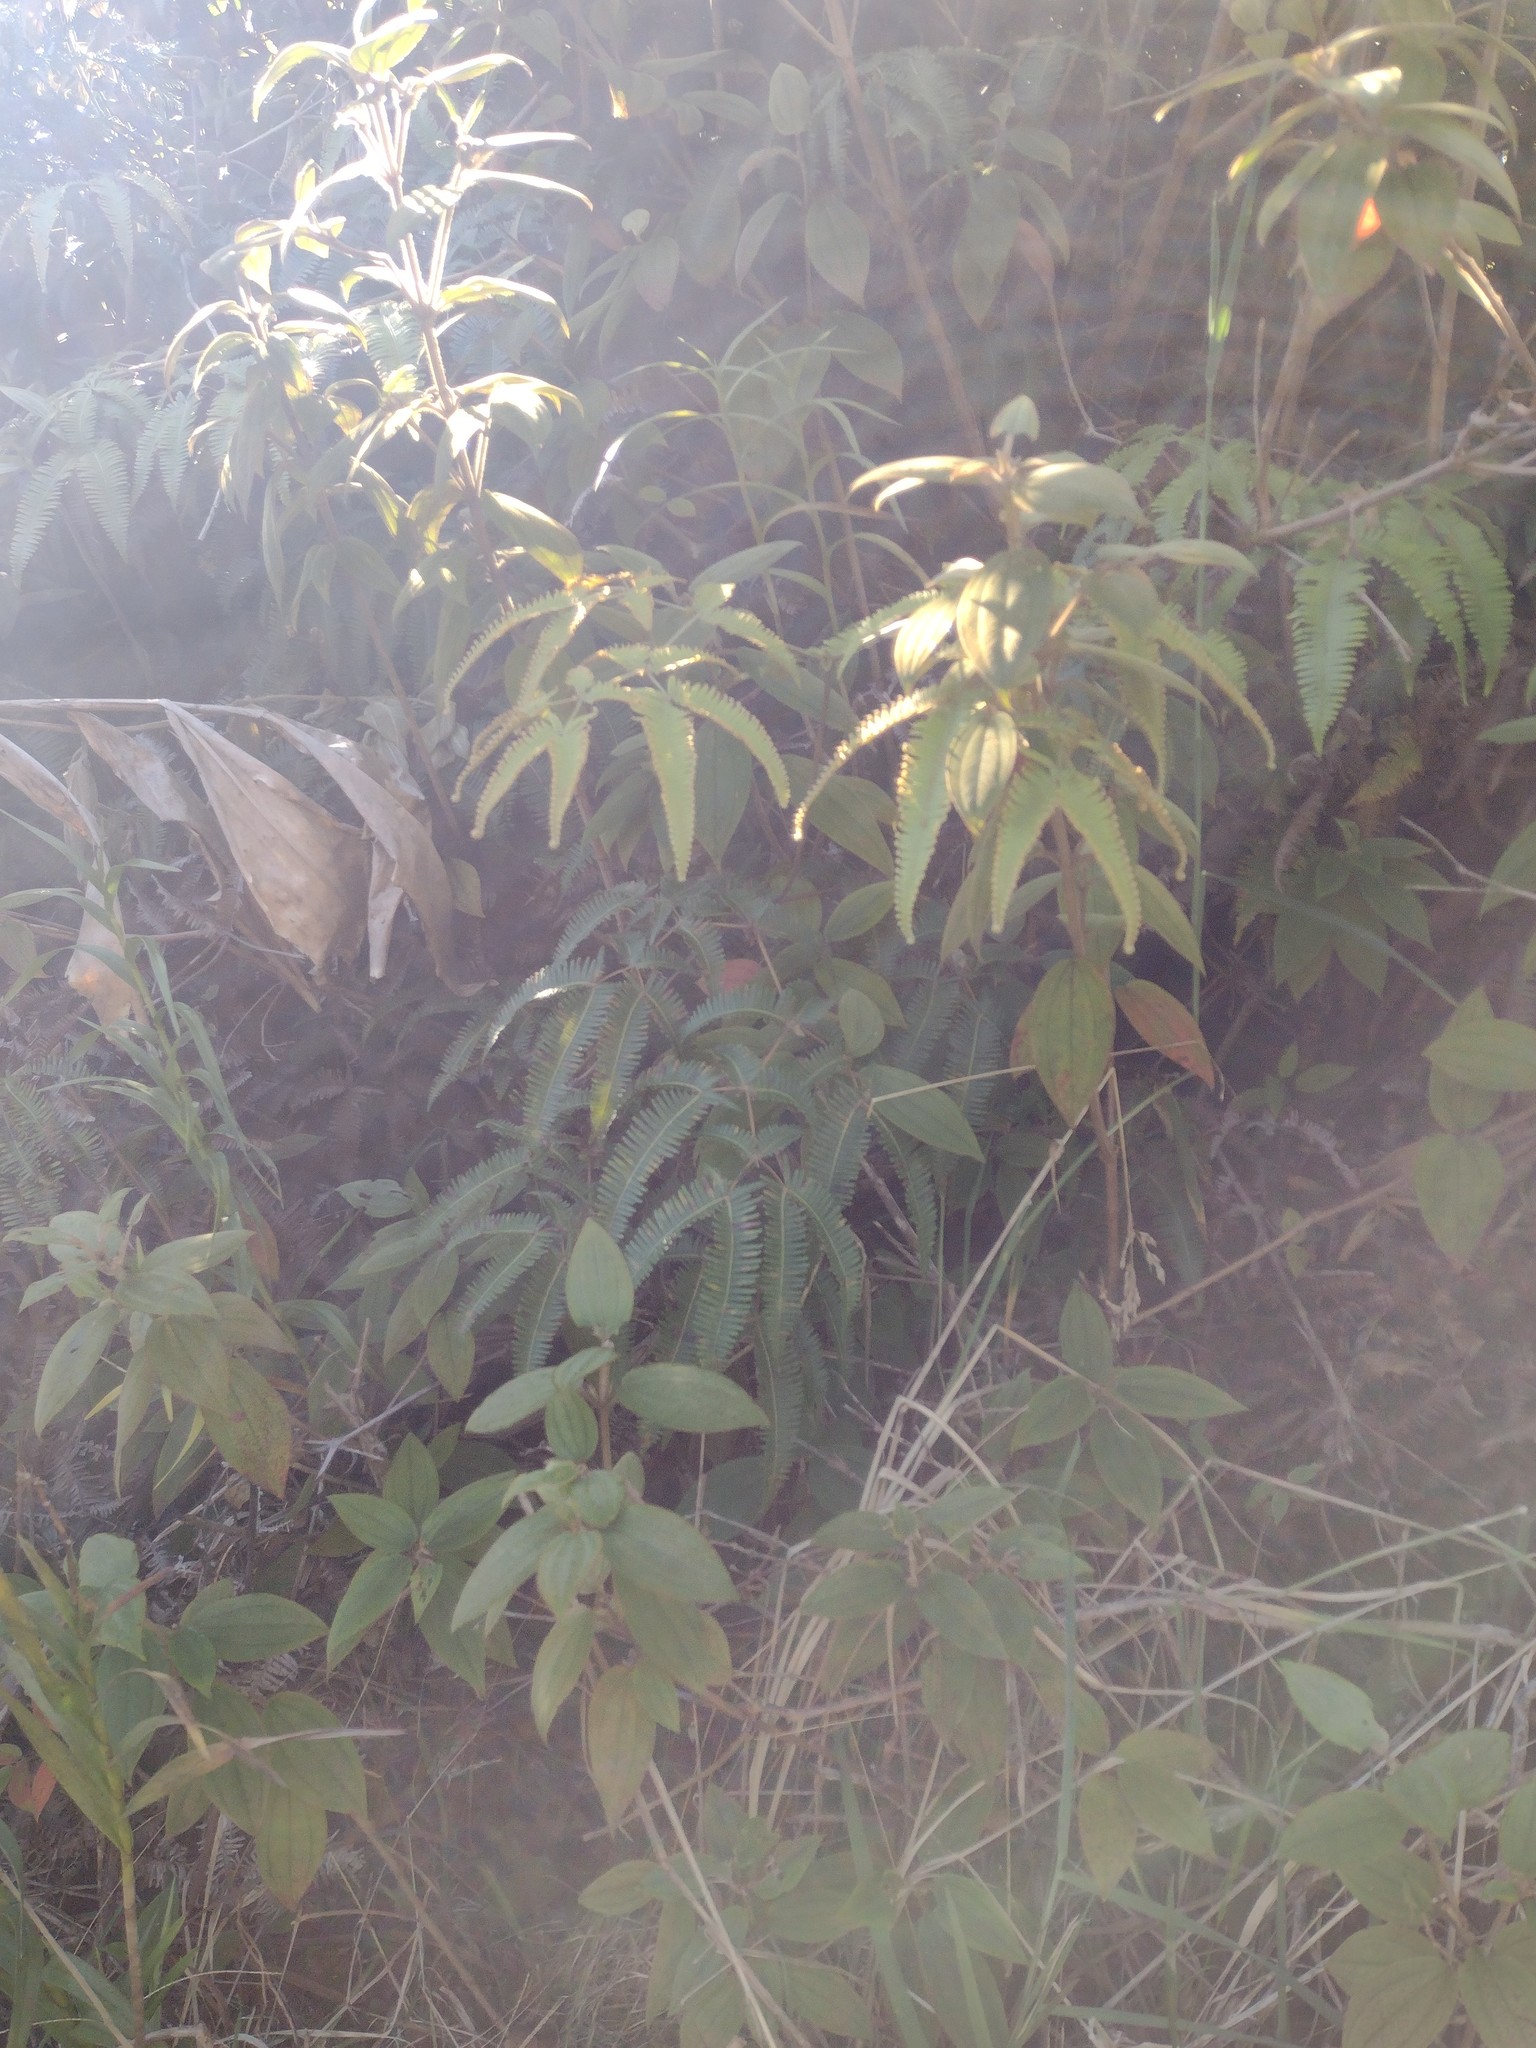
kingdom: Plantae
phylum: Tracheophyta
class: Polypodiopsida
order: Gleicheniales
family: Gleicheniaceae
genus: Dicranopteris
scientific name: Dicranopteris linearis
